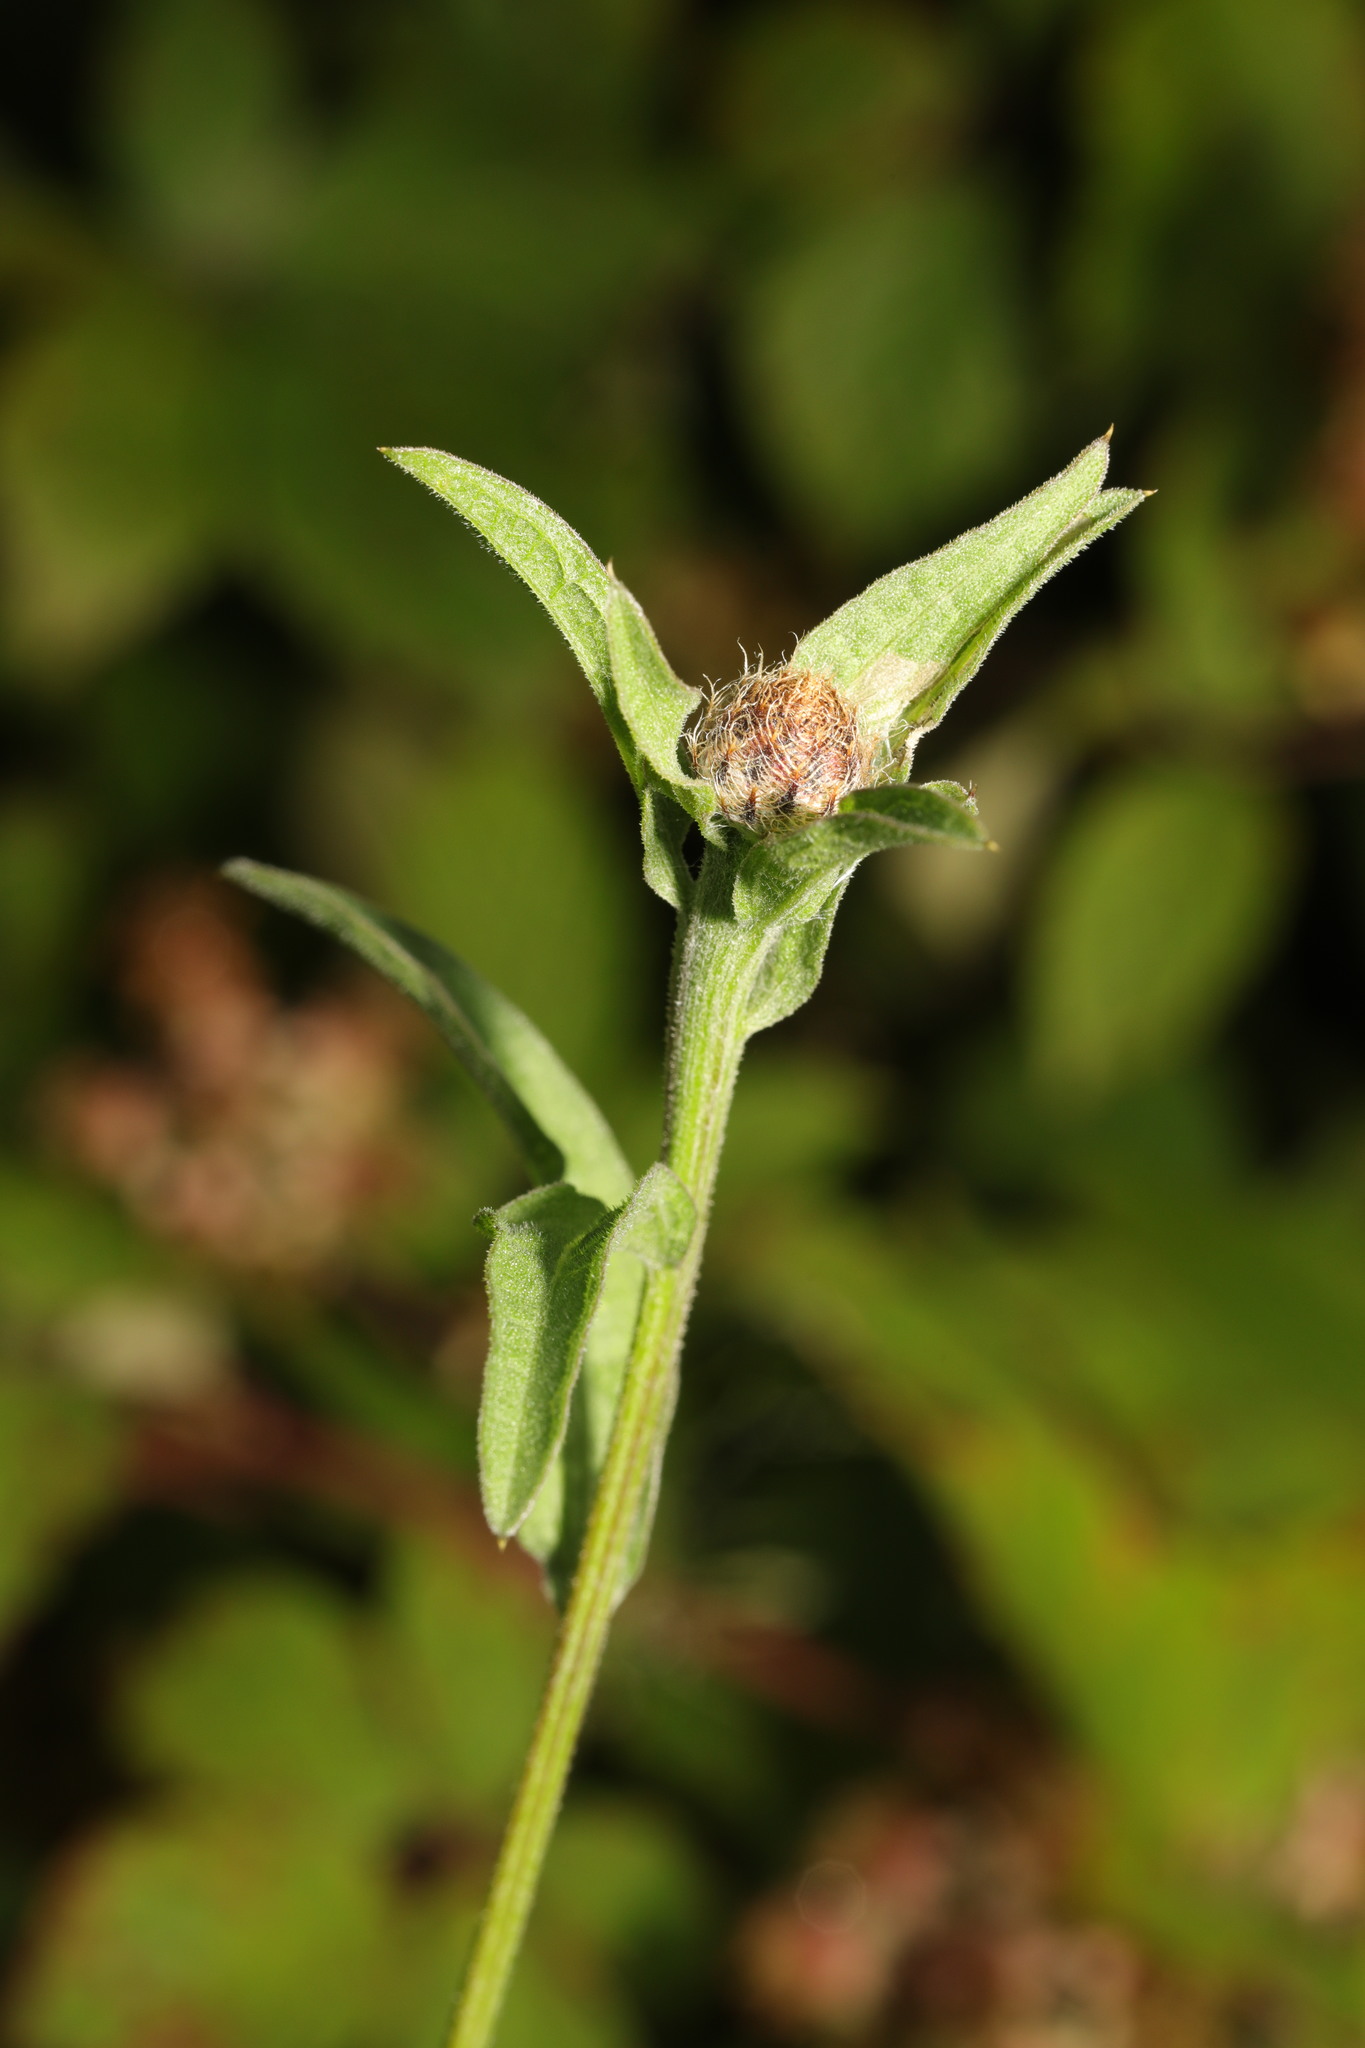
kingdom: Plantae
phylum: Tracheophyta
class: Magnoliopsida
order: Asterales
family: Asteraceae
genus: Centaurea
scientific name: Centaurea nigra
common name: Lesser knapweed
